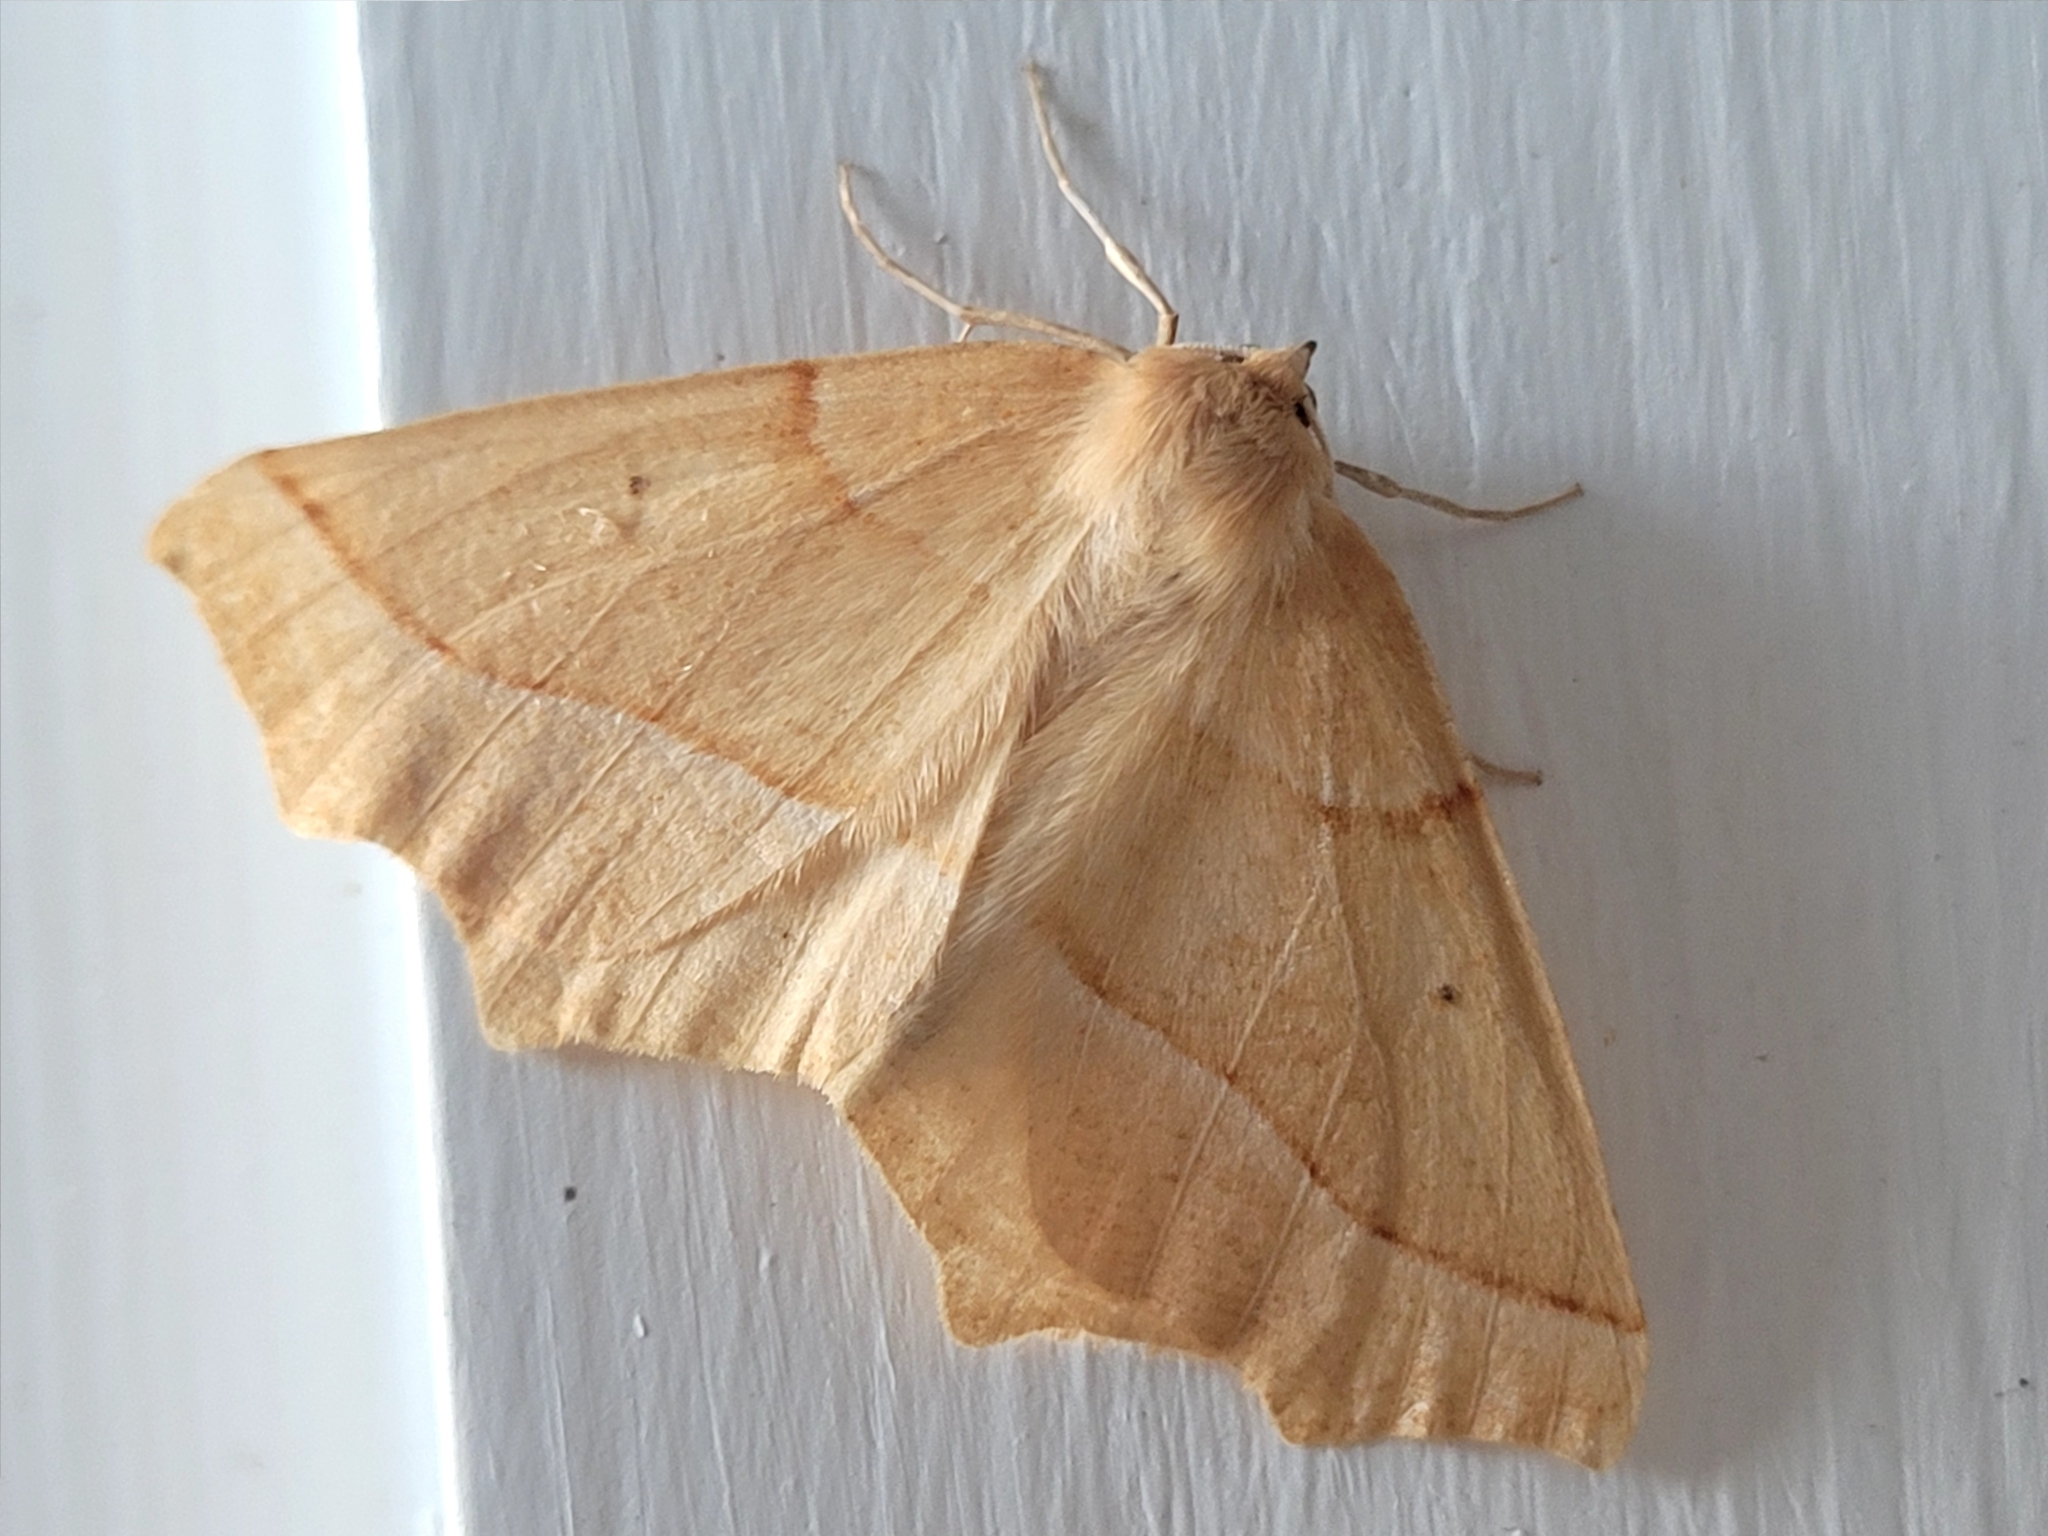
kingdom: Animalia
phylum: Arthropoda
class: Insecta
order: Lepidoptera
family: Geometridae
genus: Synaxis
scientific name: Synaxis jubararia
